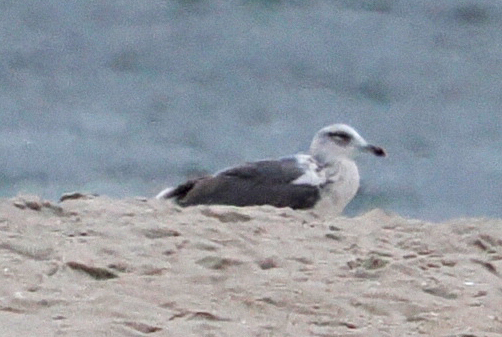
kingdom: Animalia
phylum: Chordata
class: Aves
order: Charadriiformes
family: Laridae
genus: Larus
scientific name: Larus fuscus
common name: Lesser black-backed gull
